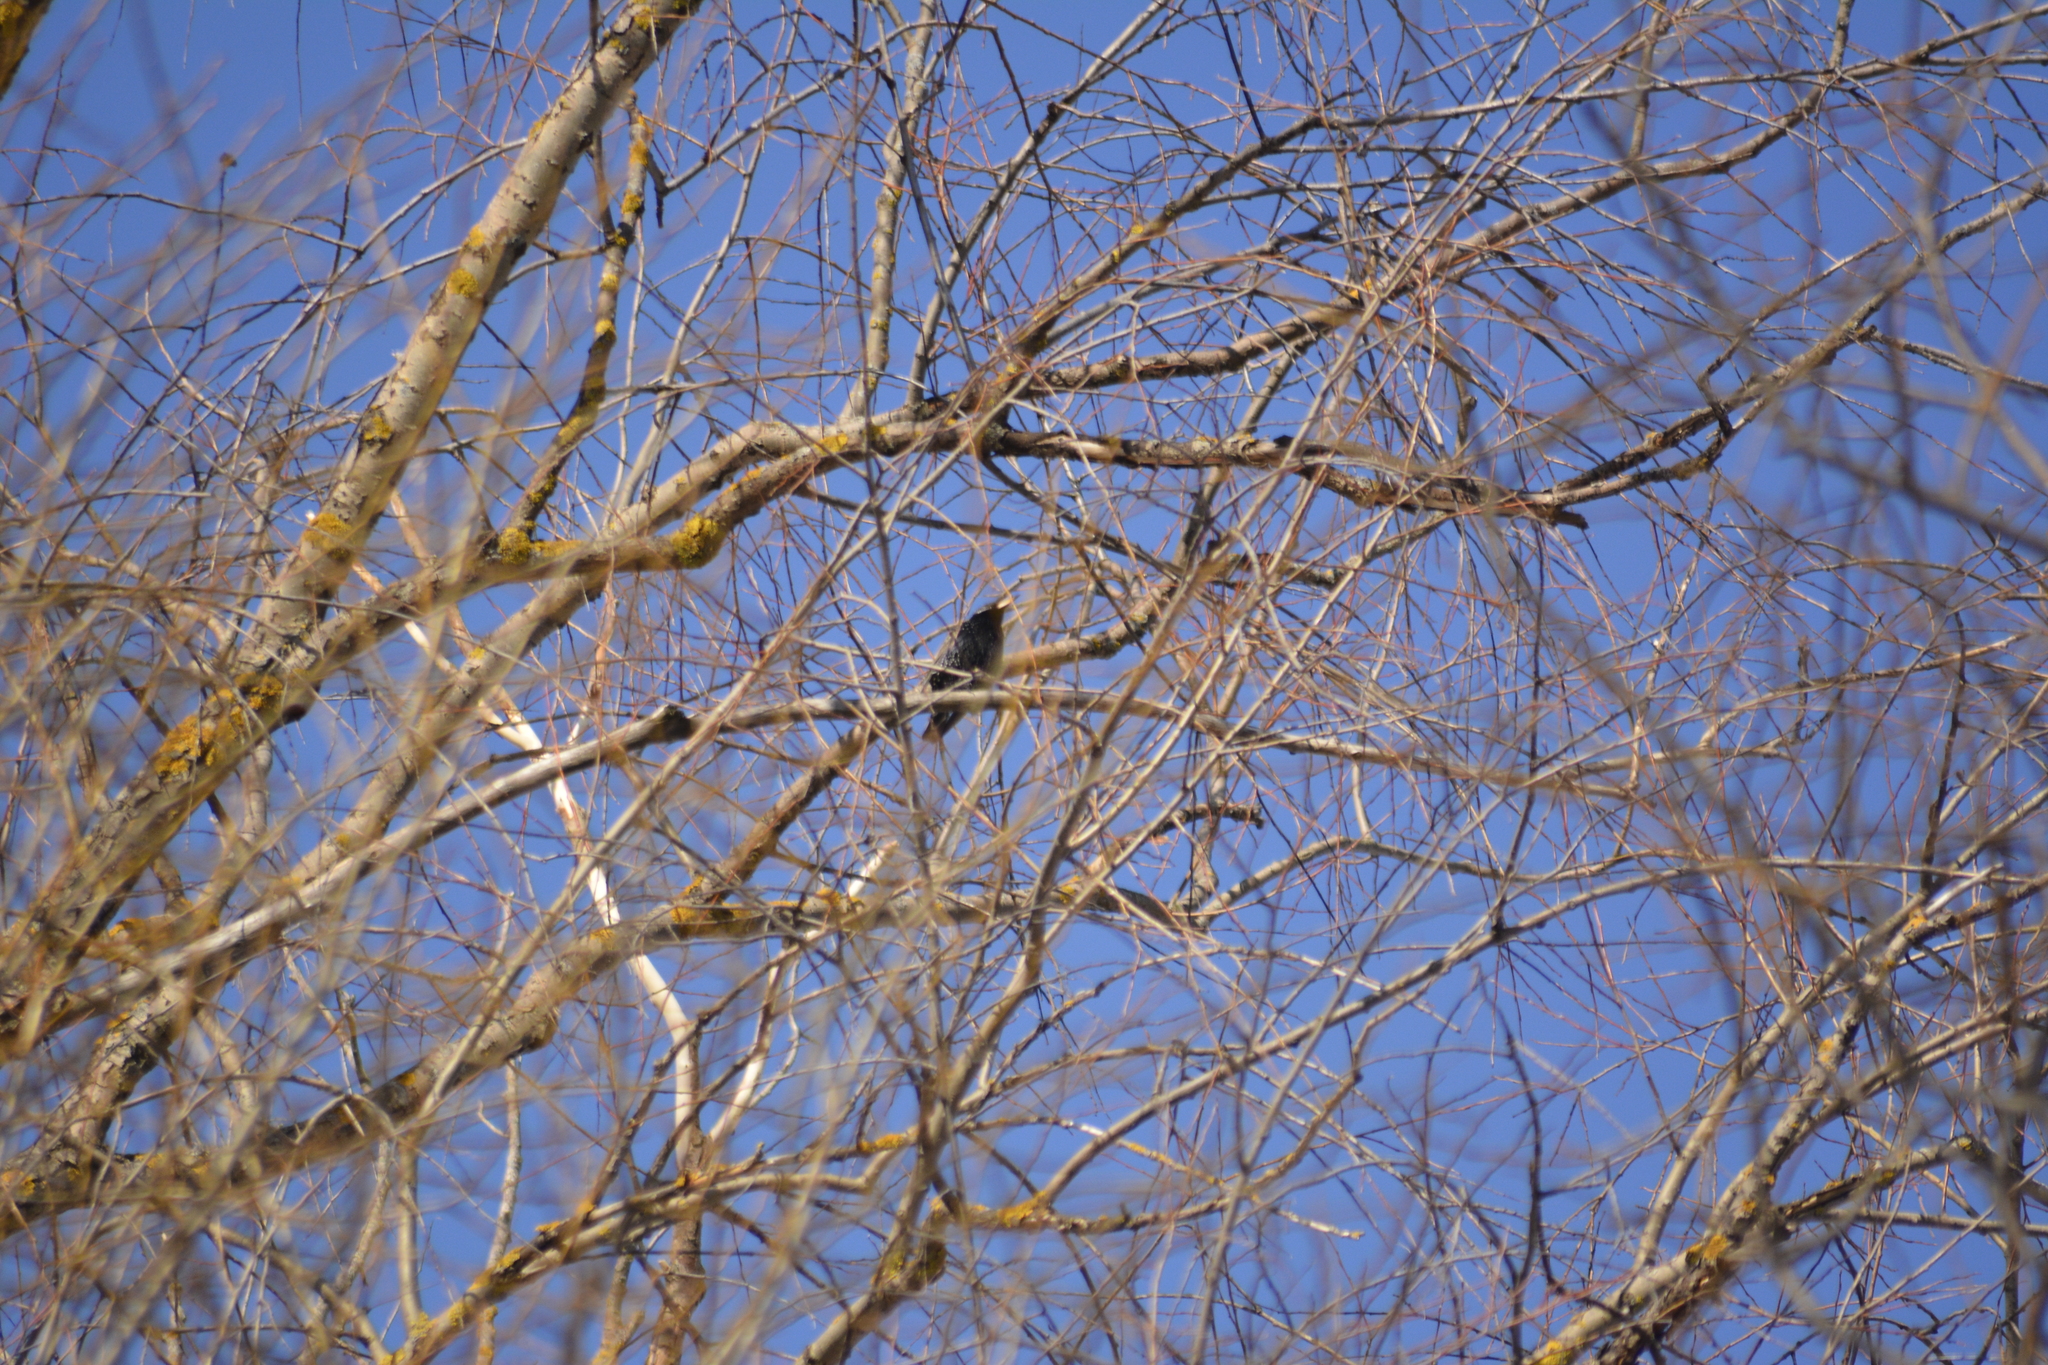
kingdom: Animalia
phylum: Chordata
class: Aves
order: Passeriformes
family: Sturnidae
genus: Sturnus
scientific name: Sturnus vulgaris
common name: Common starling
